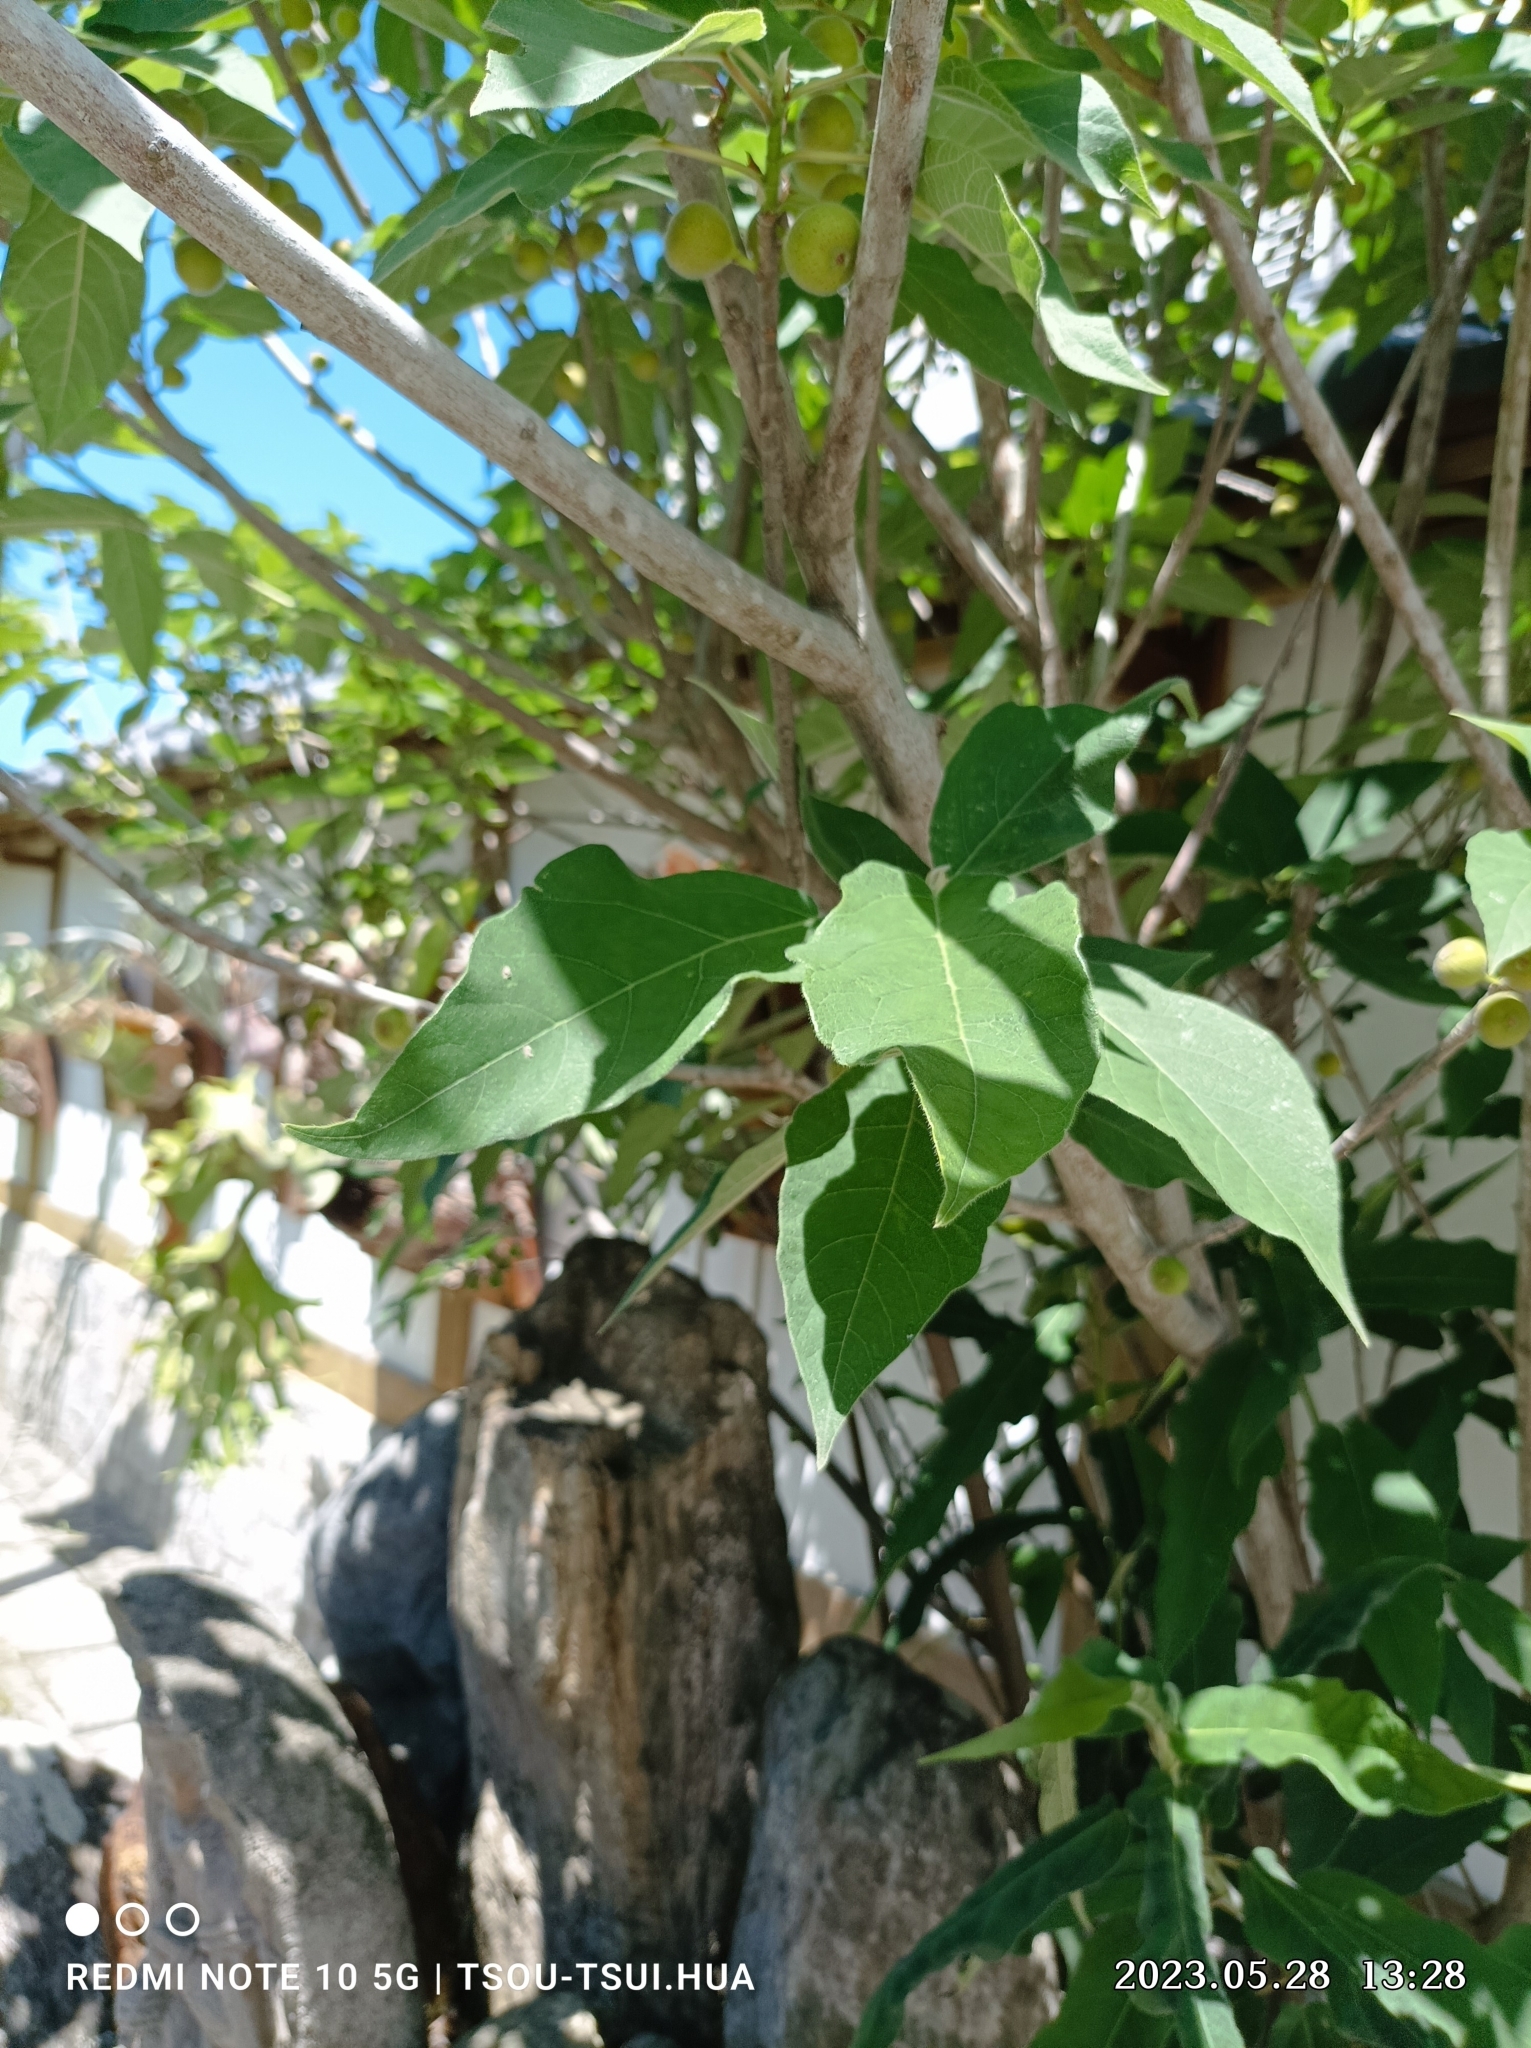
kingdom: Plantae
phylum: Tracheophyta
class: Magnoliopsida
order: Rosales
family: Moraceae
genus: Ficus
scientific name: Ficus erecta
